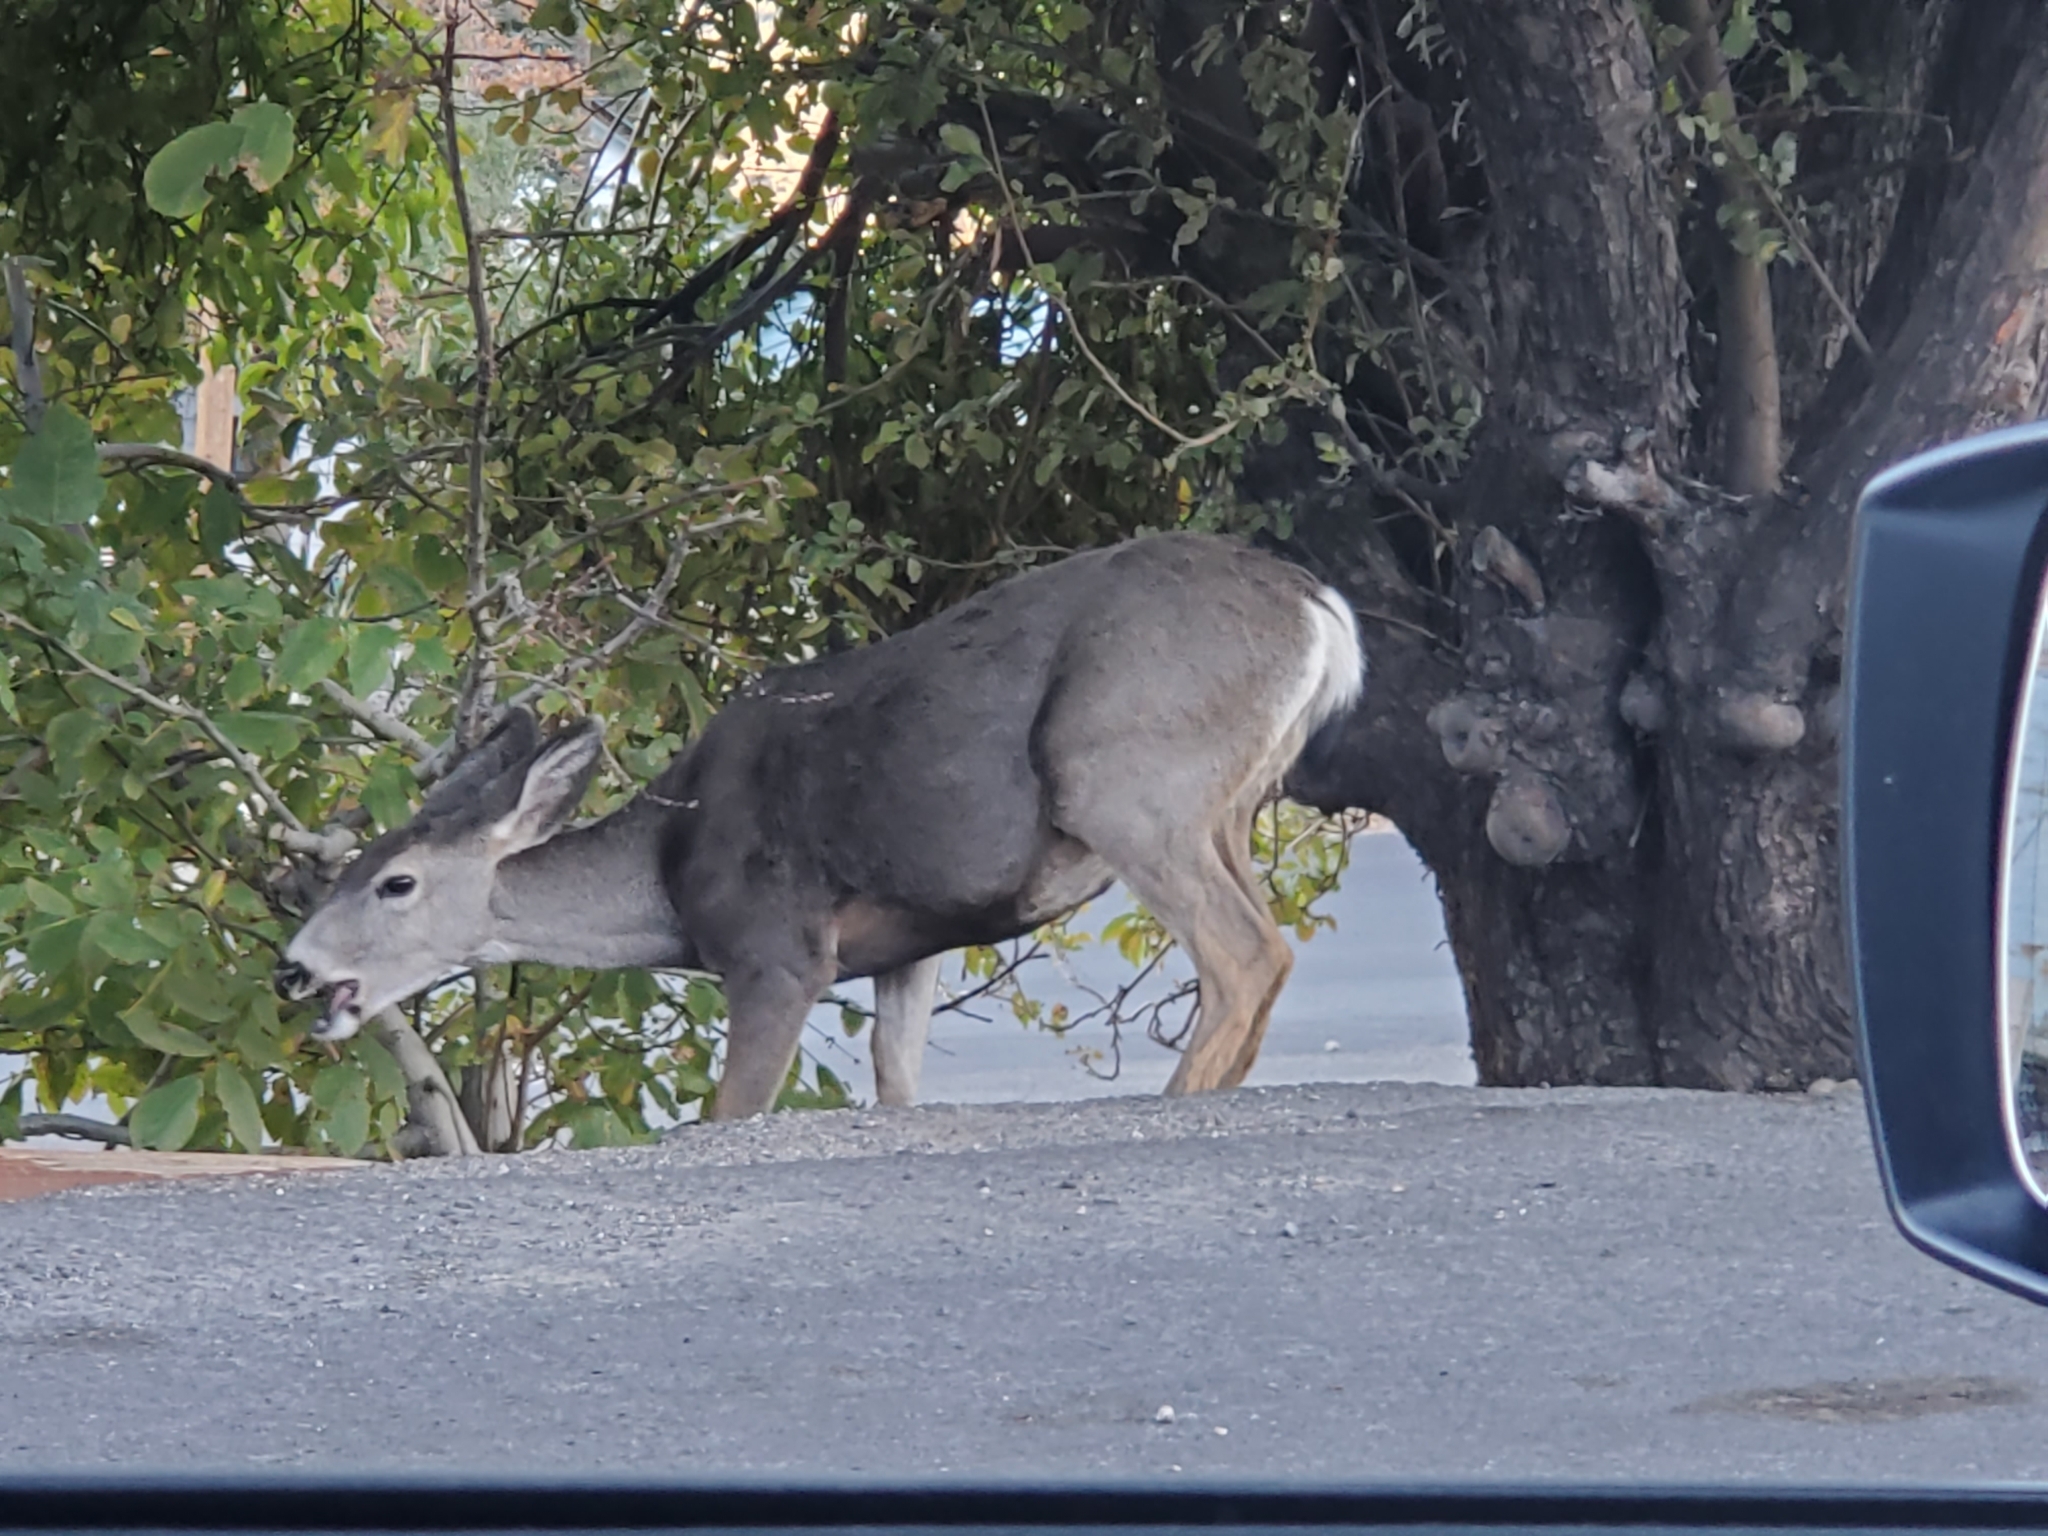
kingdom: Animalia
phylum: Chordata
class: Mammalia
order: Artiodactyla
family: Cervidae
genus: Odocoileus
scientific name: Odocoileus hemionus
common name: Mule deer
